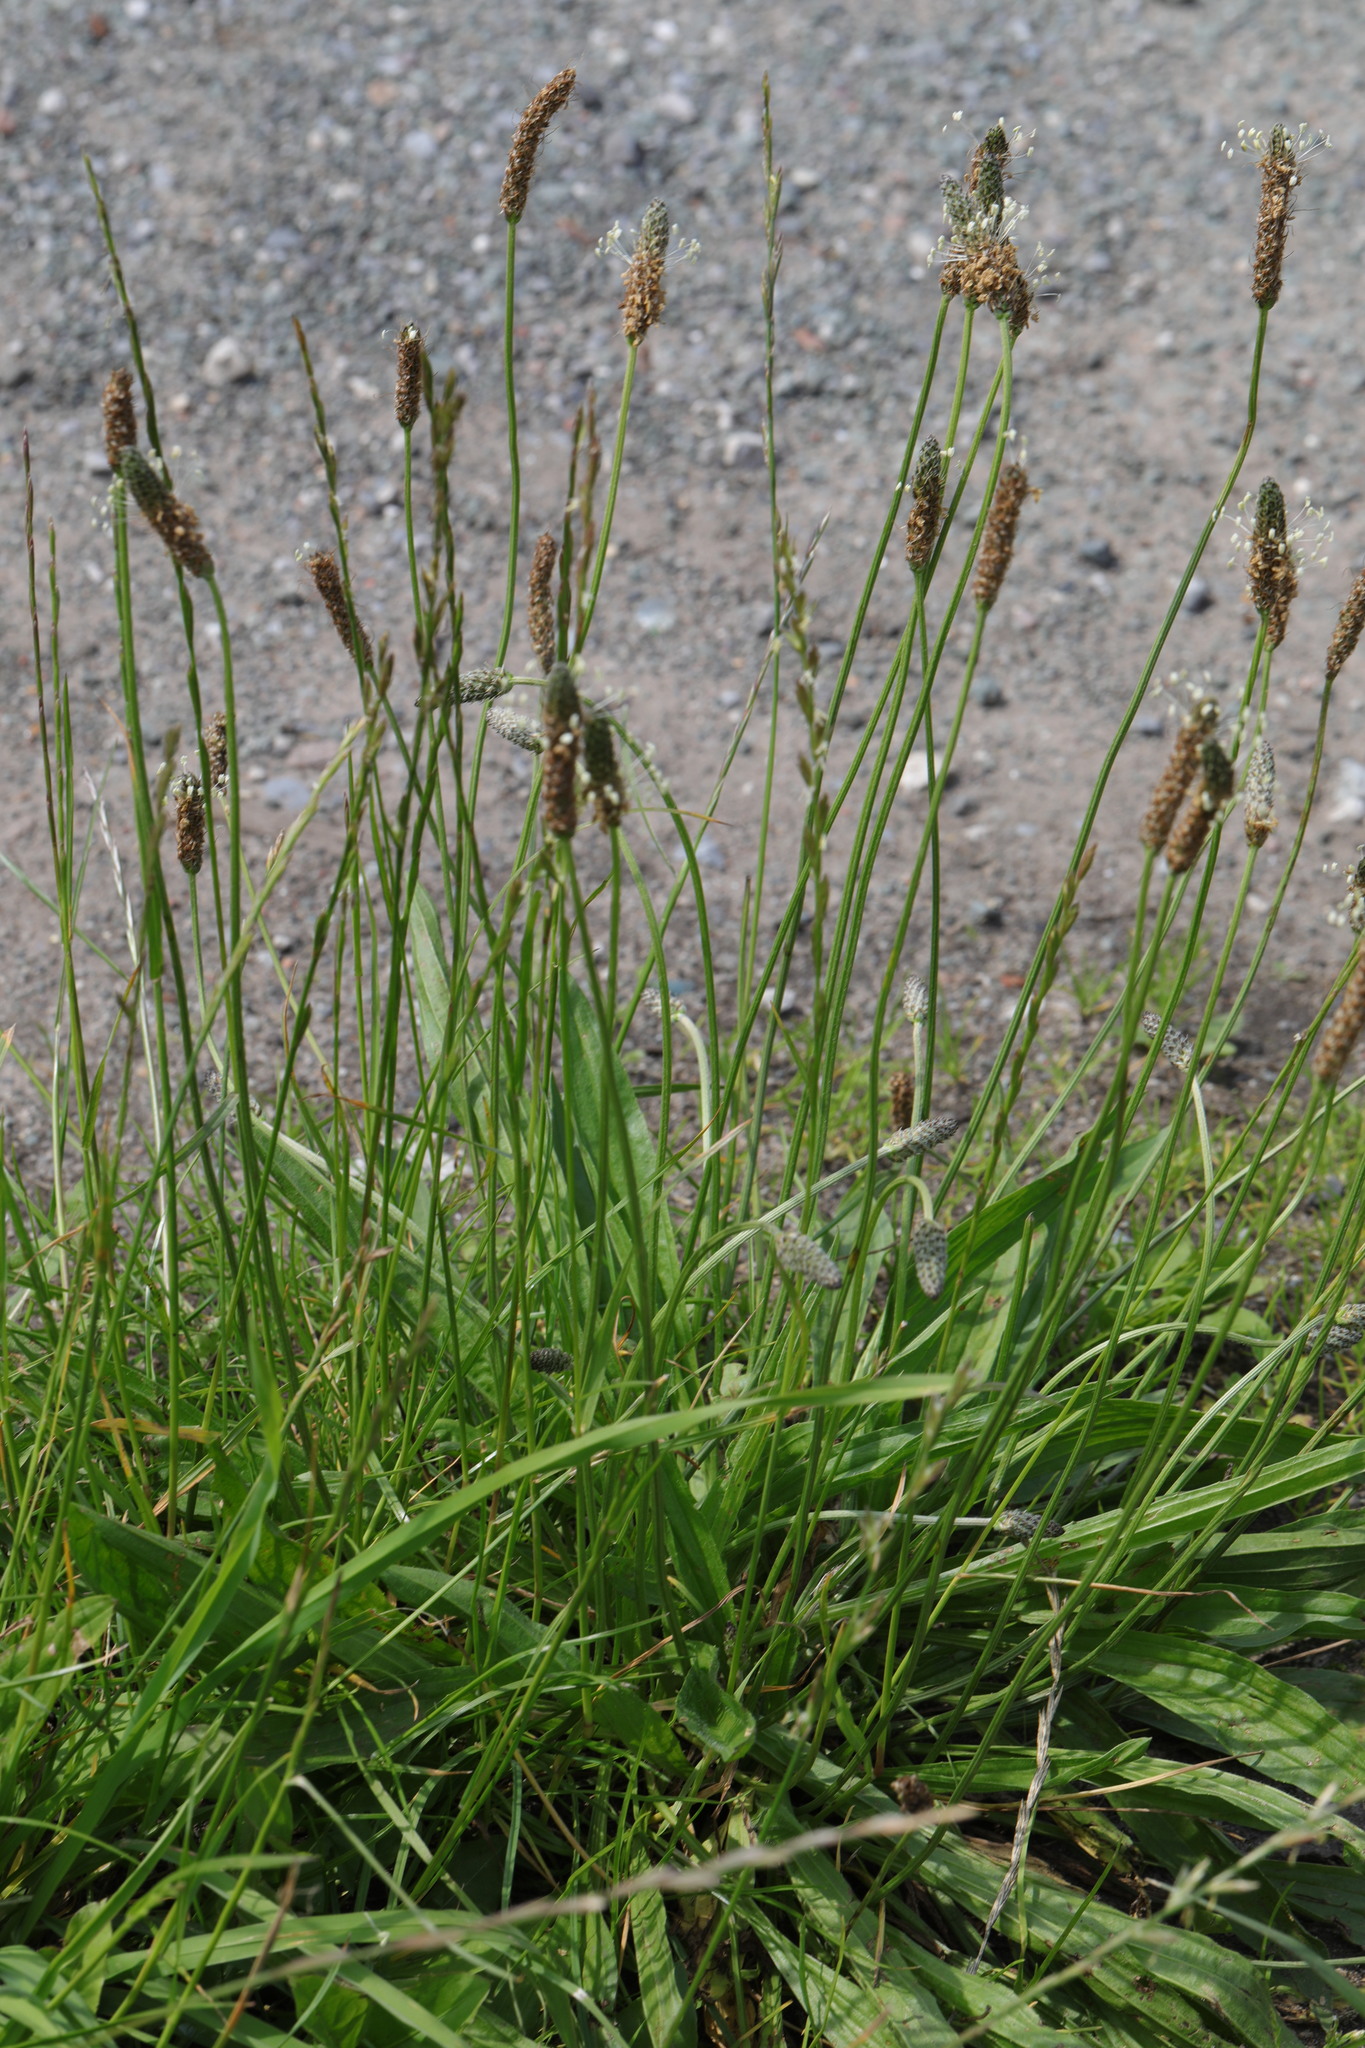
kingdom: Plantae
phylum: Tracheophyta
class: Magnoliopsida
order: Lamiales
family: Plantaginaceae
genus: Plantago
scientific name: Plantago lanceolata
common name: Ribwort plantain
